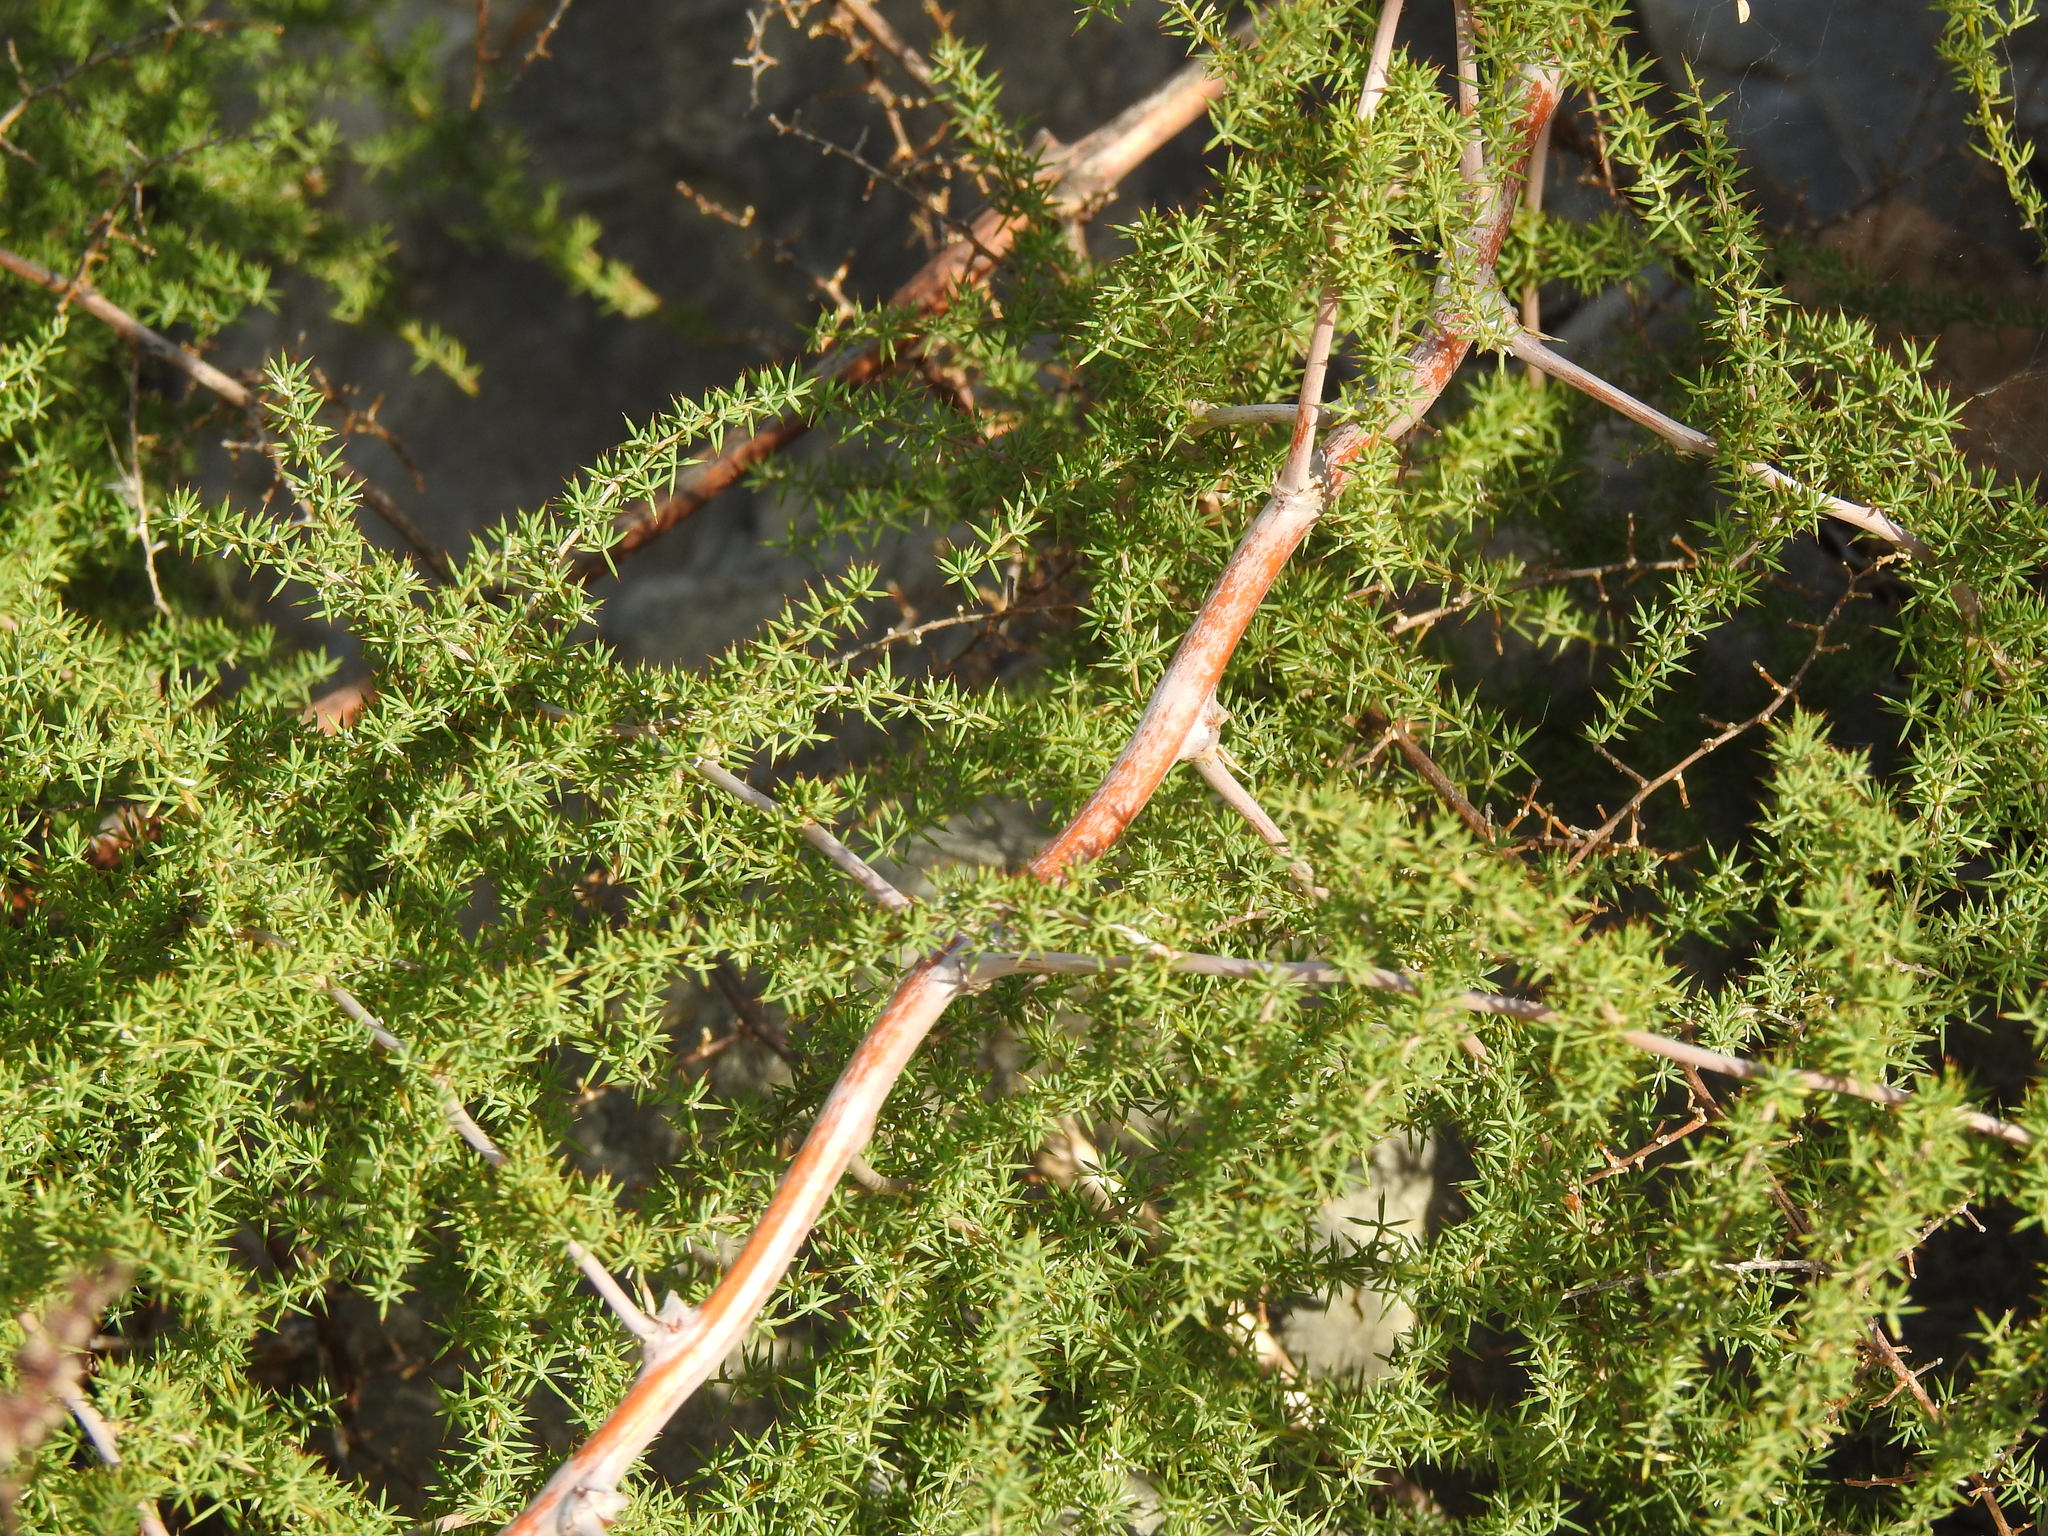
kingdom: Plantae
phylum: Tracheophyta
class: Liliopsida
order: Asparagales
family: Asparagaceae
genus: Asparagus
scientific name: Asparagus acutifolius
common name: Wild asparagus
